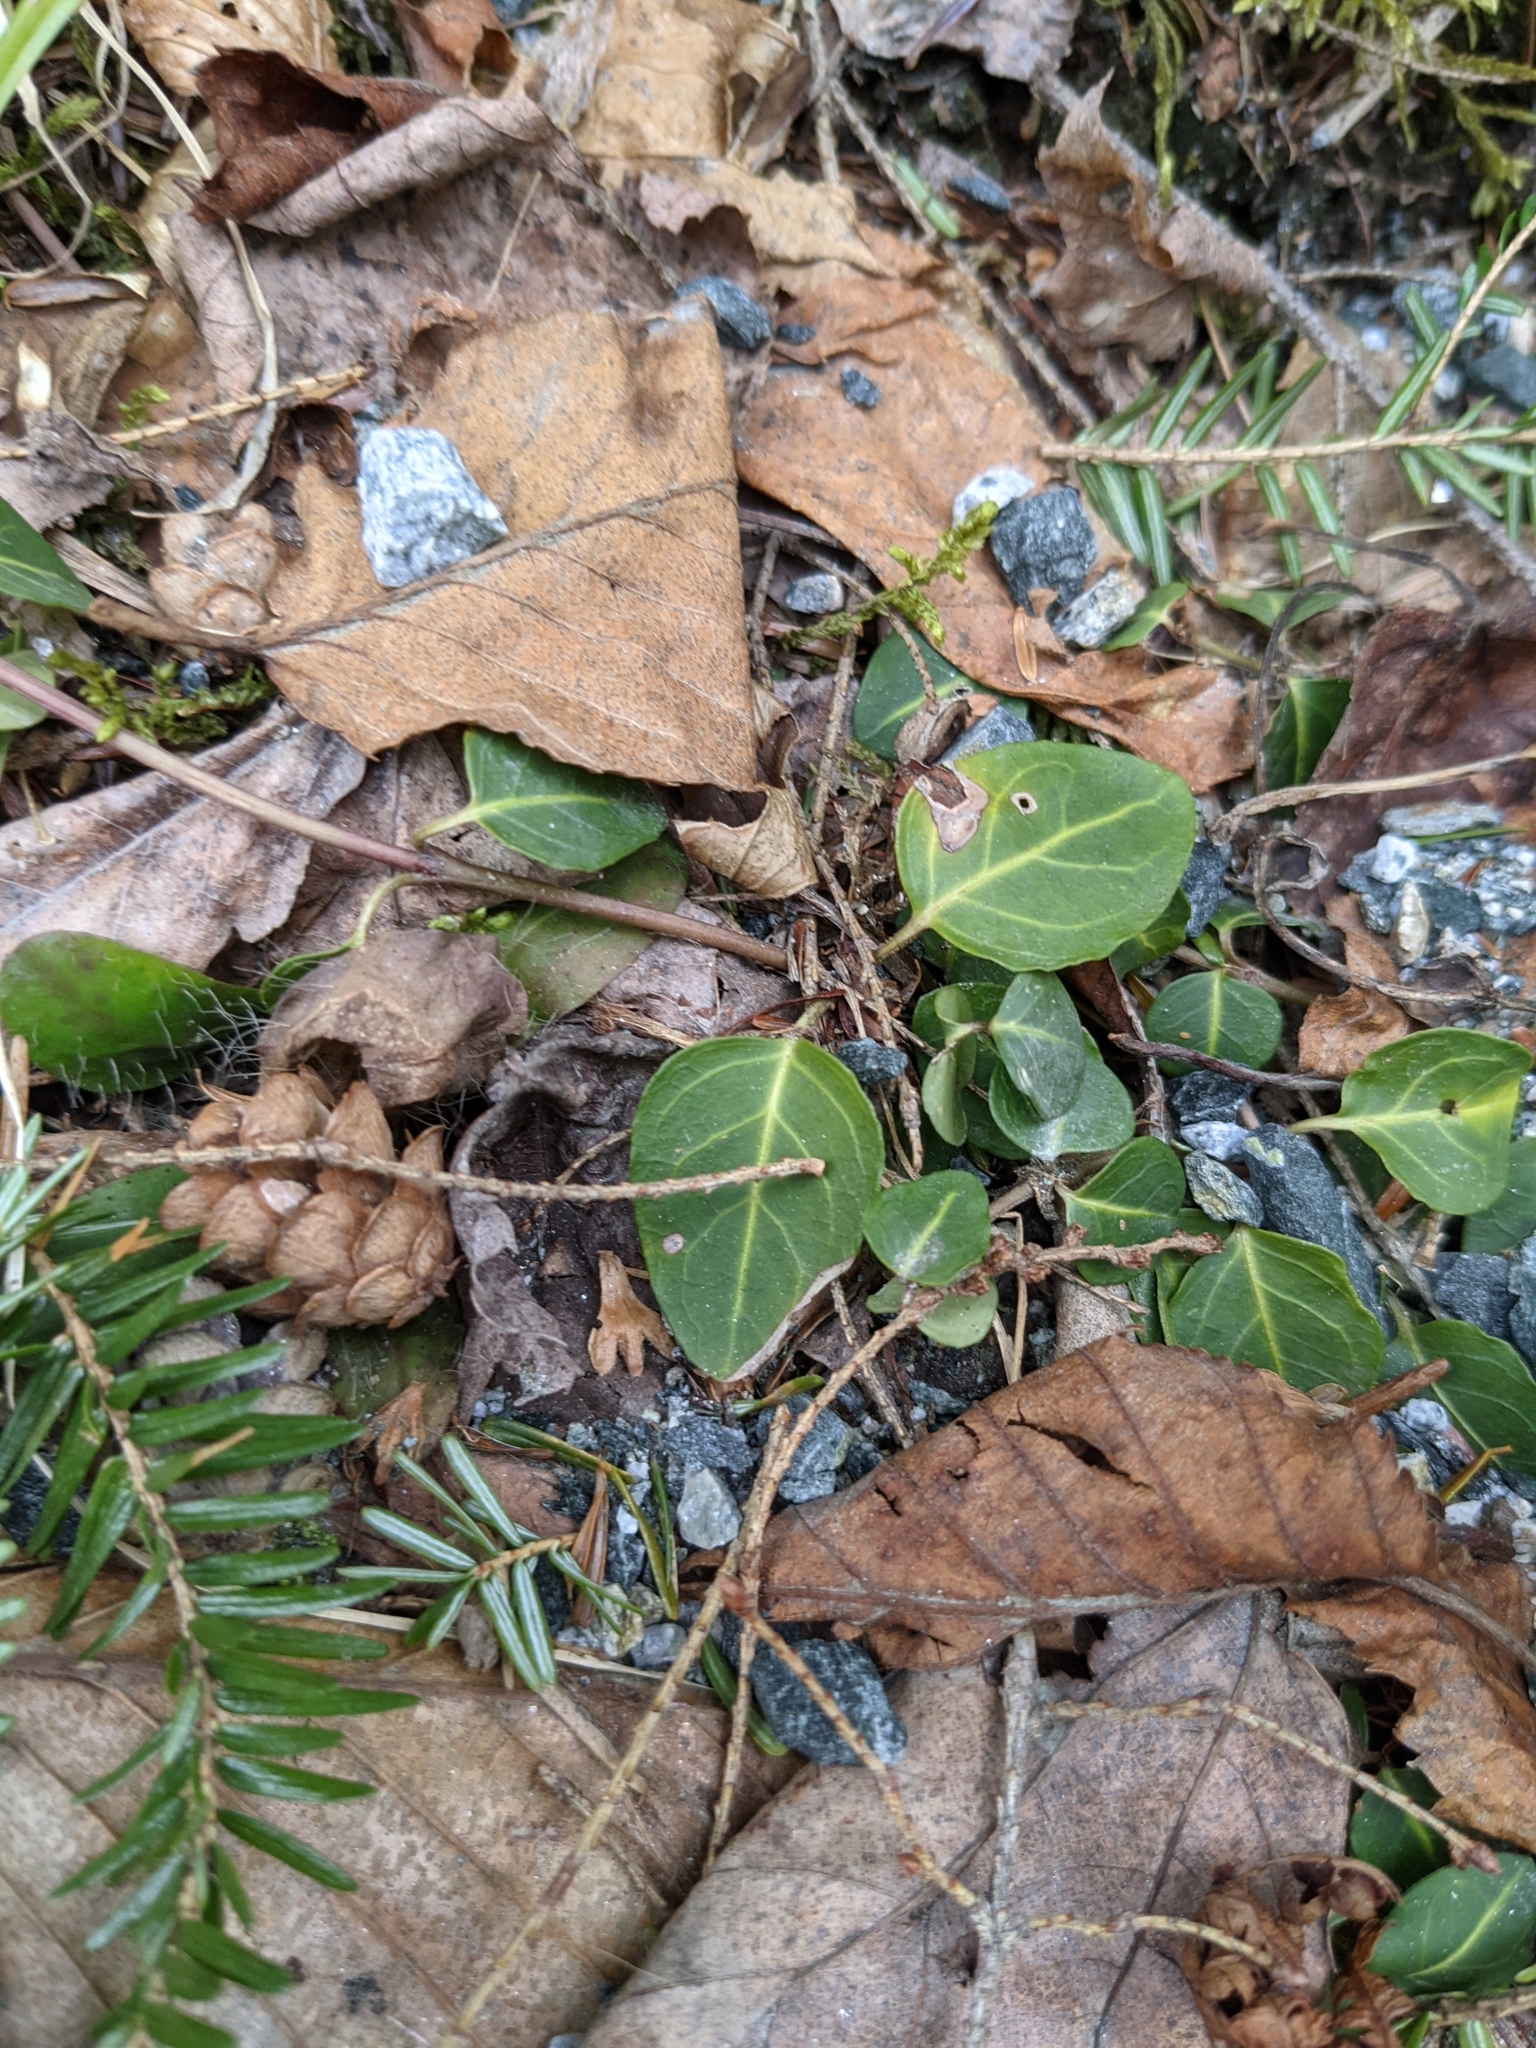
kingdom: Plantae
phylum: Tracheophyta
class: Magnoliopsida
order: Gentianales
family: Rubiaceae
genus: Mitchella
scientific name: Mitchella repens
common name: Partridge-berry
